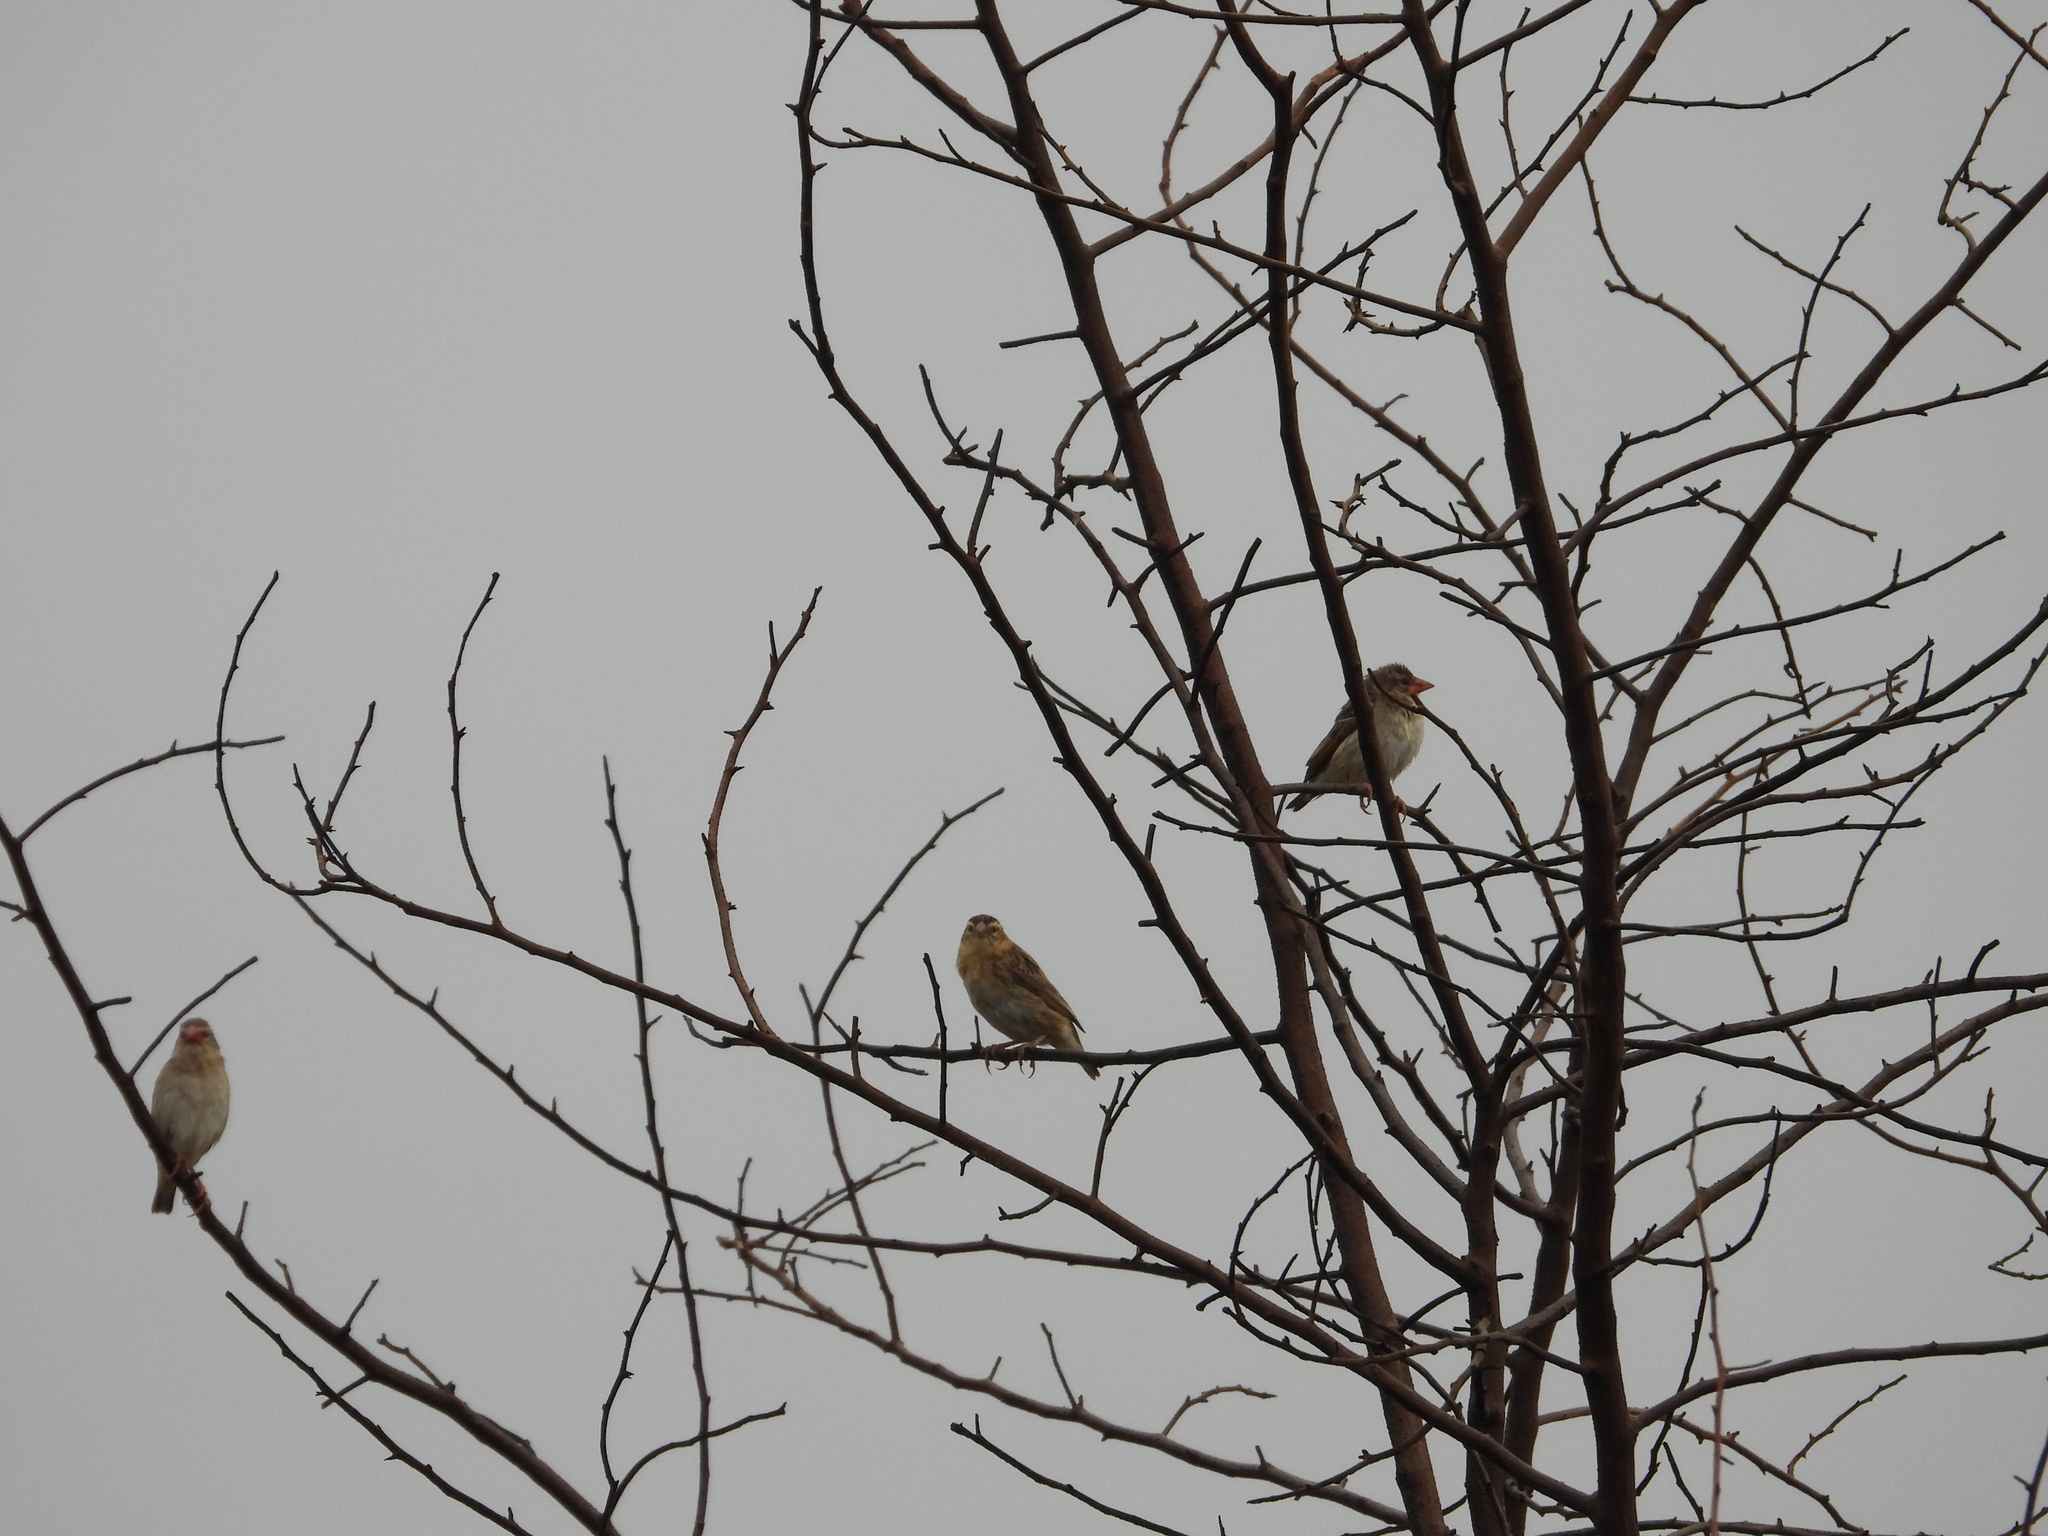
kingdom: Animalia
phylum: Chordata
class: Aves
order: Passeriformes
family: Ploceidae
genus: Quelea
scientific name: Quelea quelea
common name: Red-billed quelea
